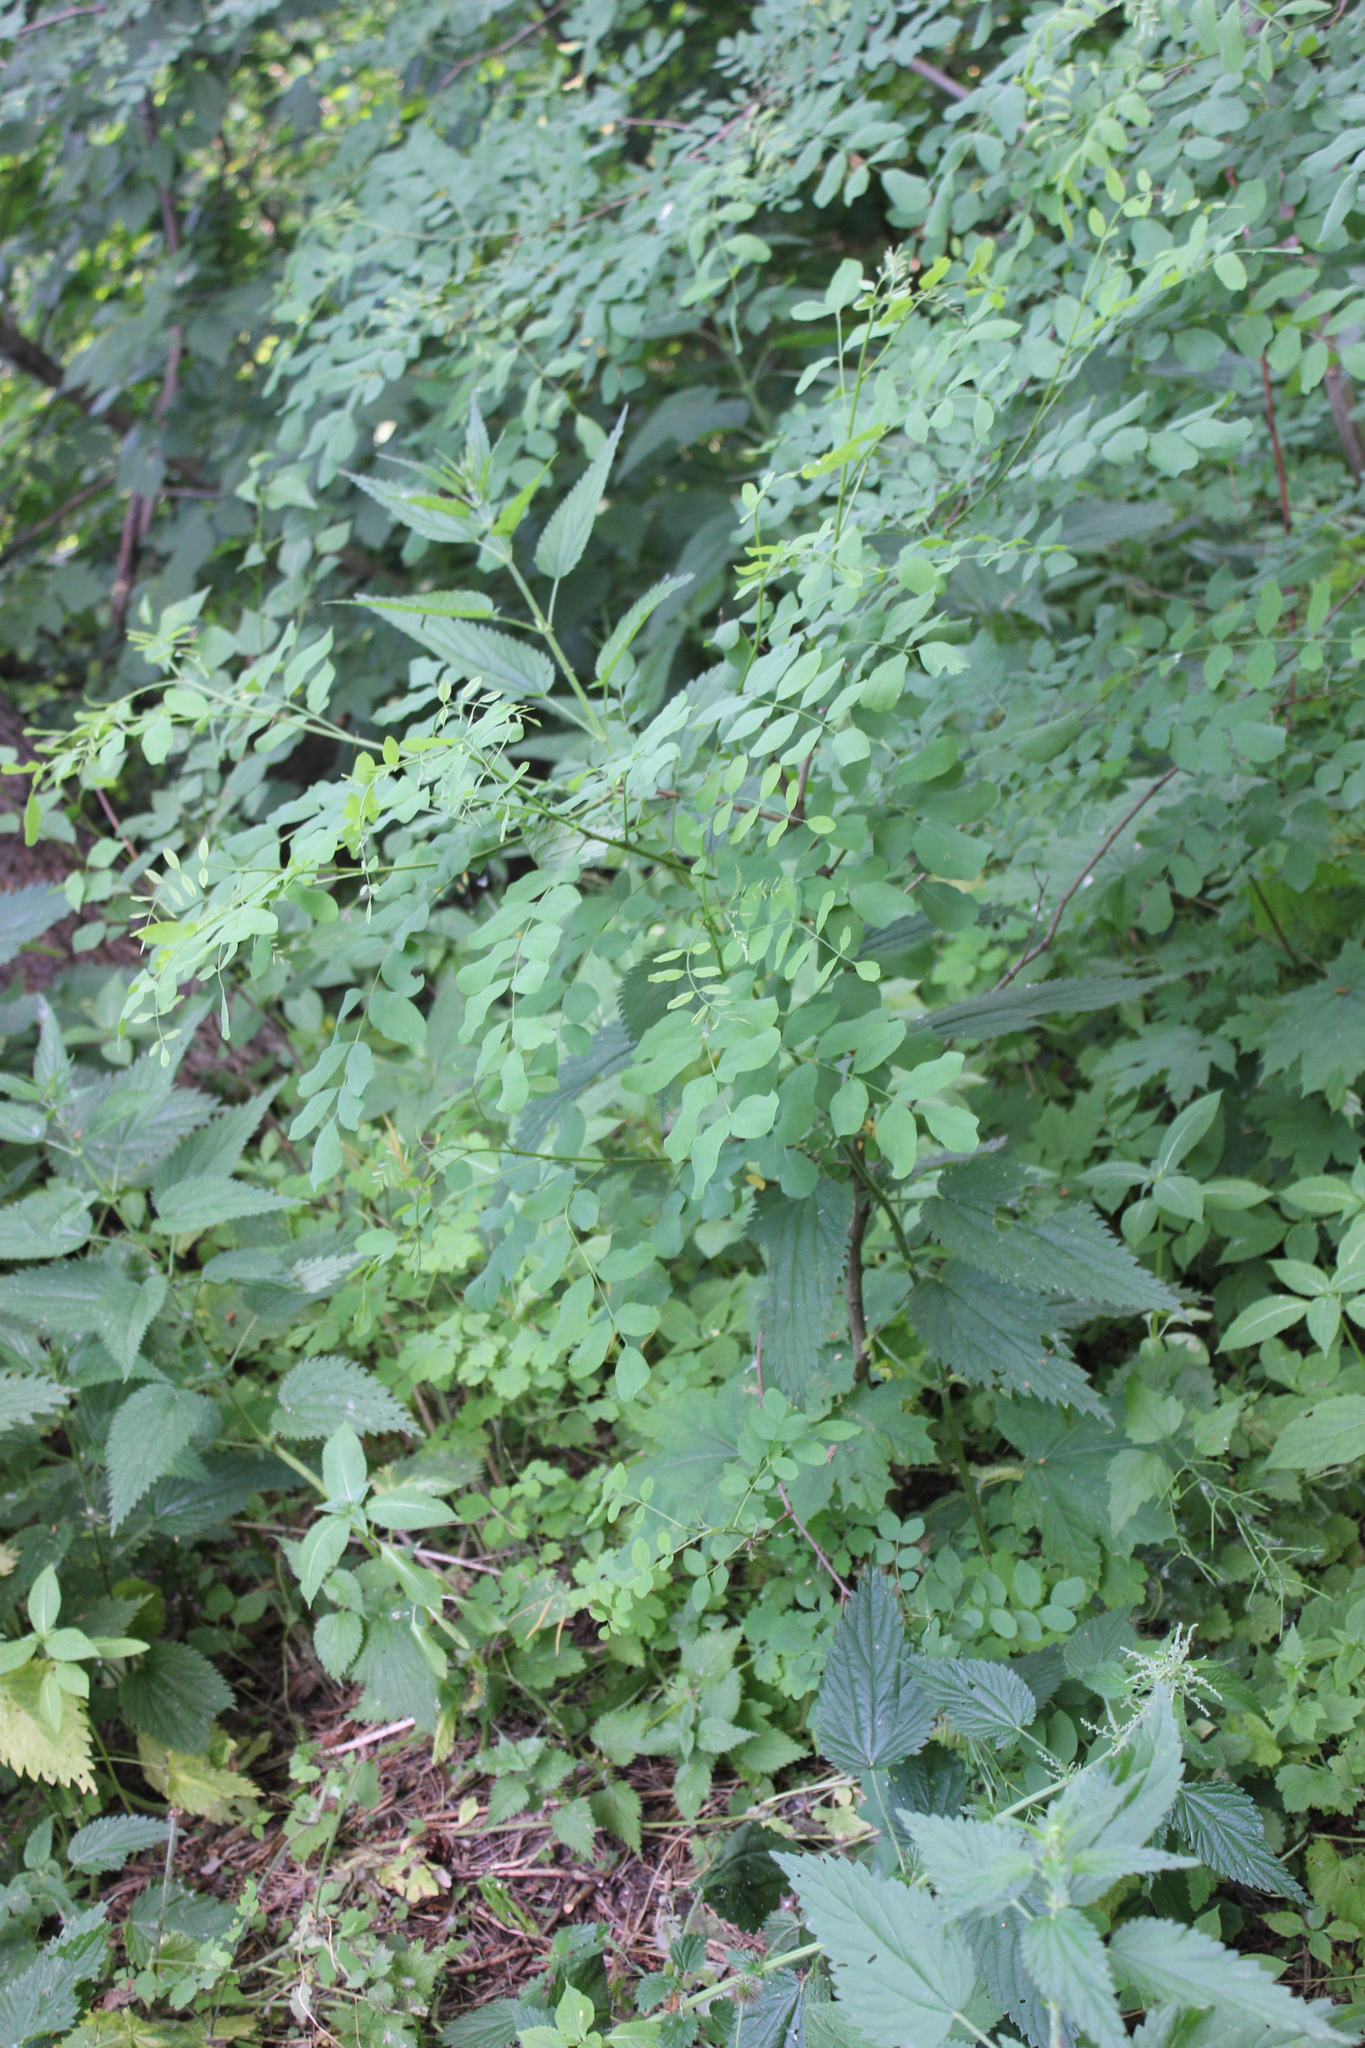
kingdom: Plantae
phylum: Tracheophyta
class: Magnoliopsida
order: Fabales
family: Fabaceae
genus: Robinia
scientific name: Robinia pseudoacacia
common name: Black locust
